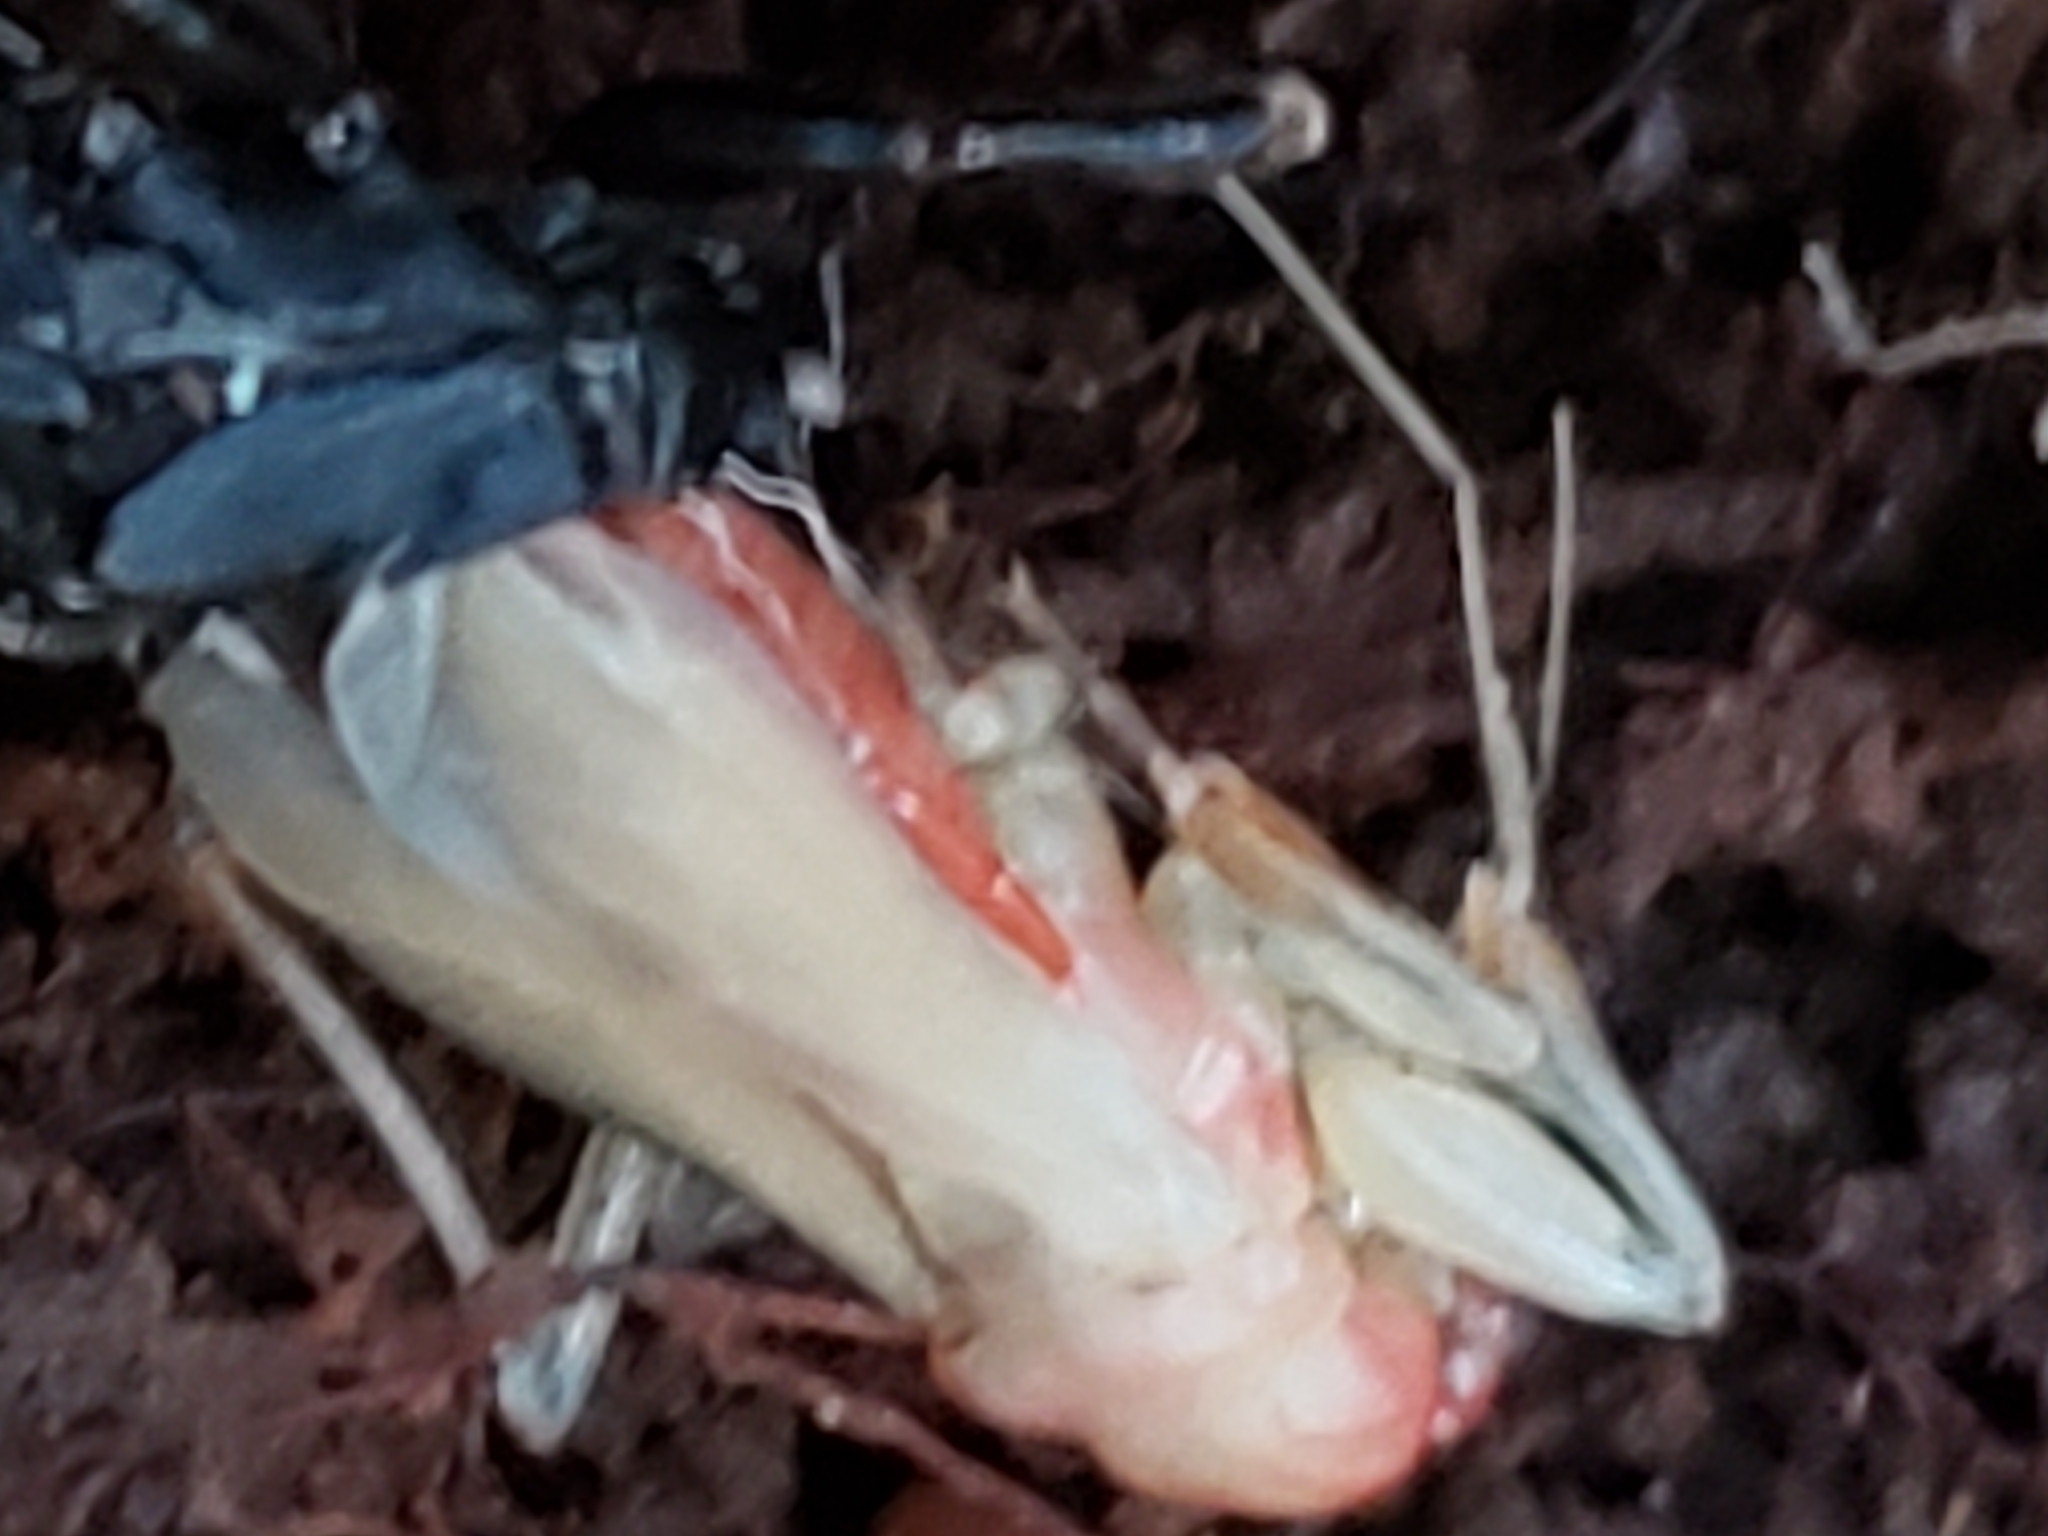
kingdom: Animalia
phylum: Arthropoda
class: Insecta
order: Hemiptera
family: Reduviidae
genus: Melanolestes
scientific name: Melanolestes picipes
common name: Assassin bug
